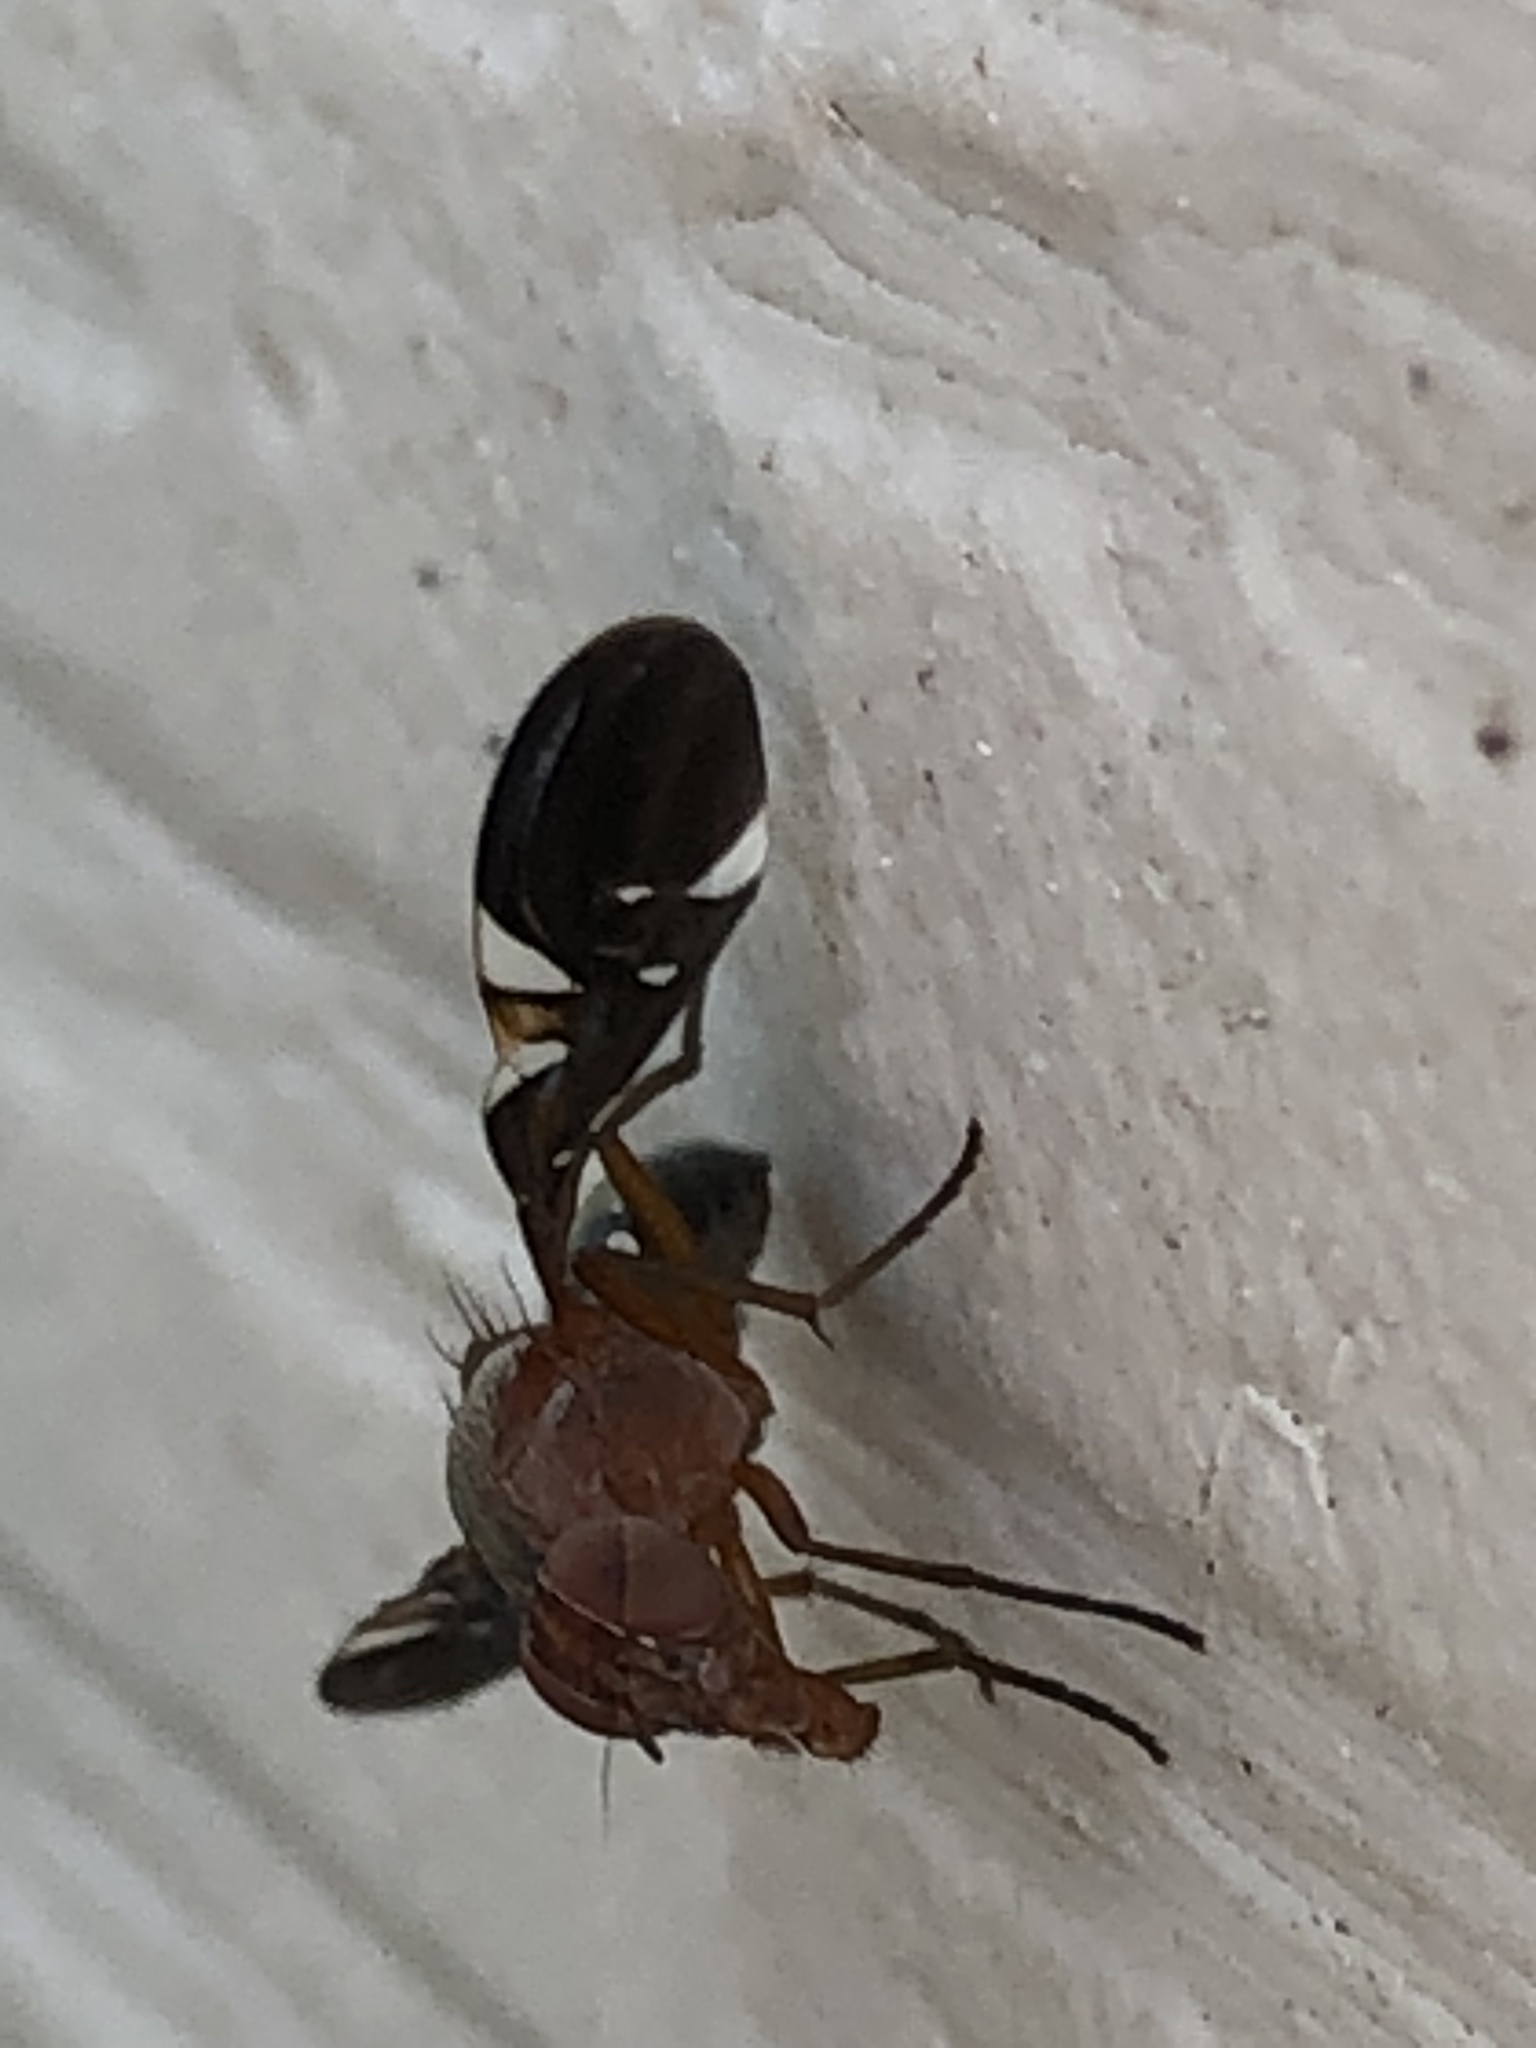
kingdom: Animalia
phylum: Arthropoda
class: Insecta
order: Diptera
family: Ulidiidae
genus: Delphinia
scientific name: Delphinia picta
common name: Common picture-winged fly
